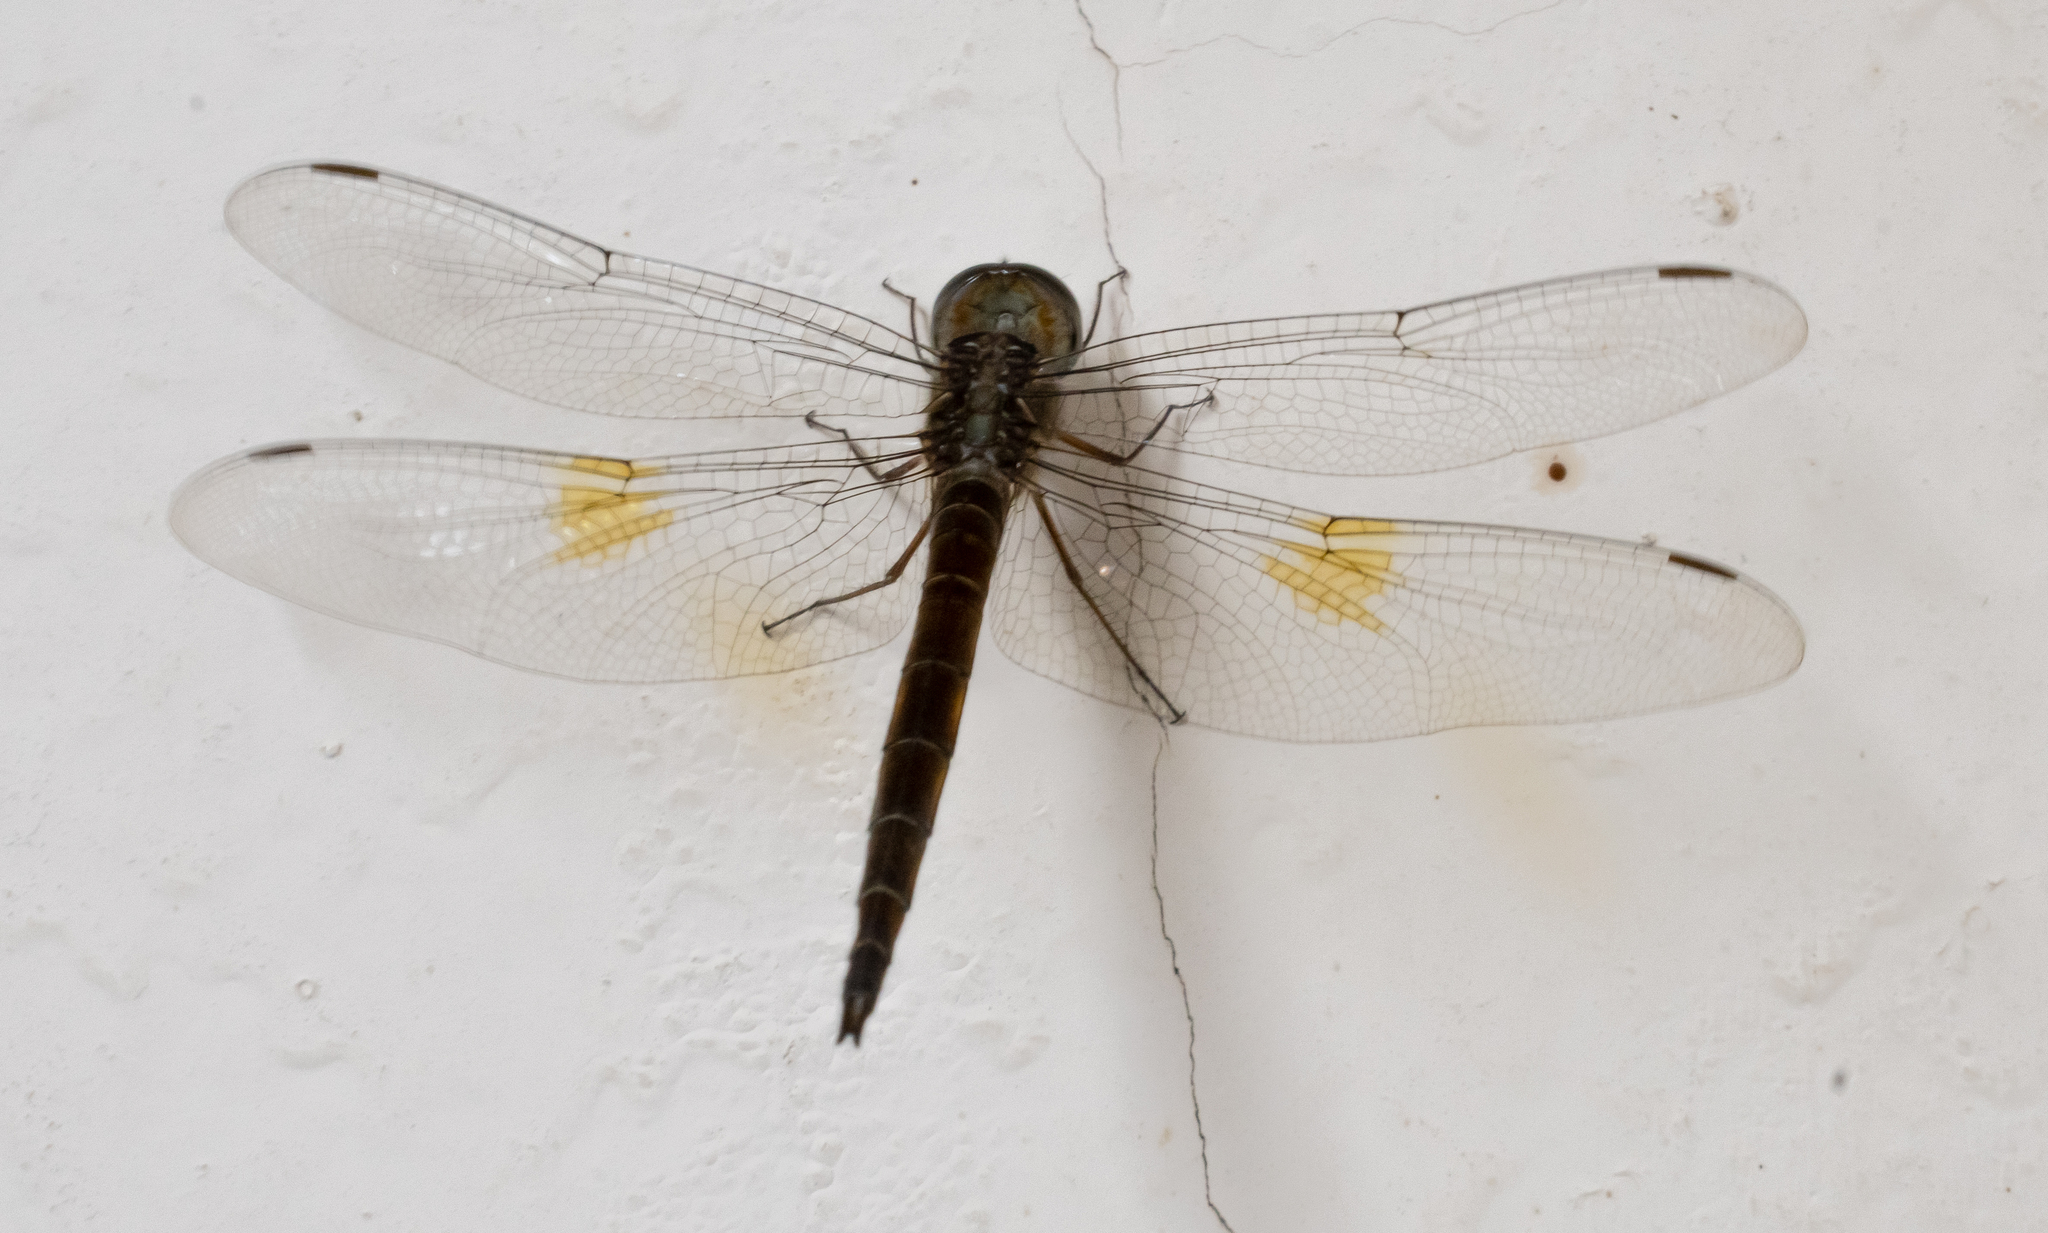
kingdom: Animalia
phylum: Arthropoda
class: Insecta
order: Odonata
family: Libellulidae
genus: Tholymis
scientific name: Tholymis citrina
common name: Evening skimmer
